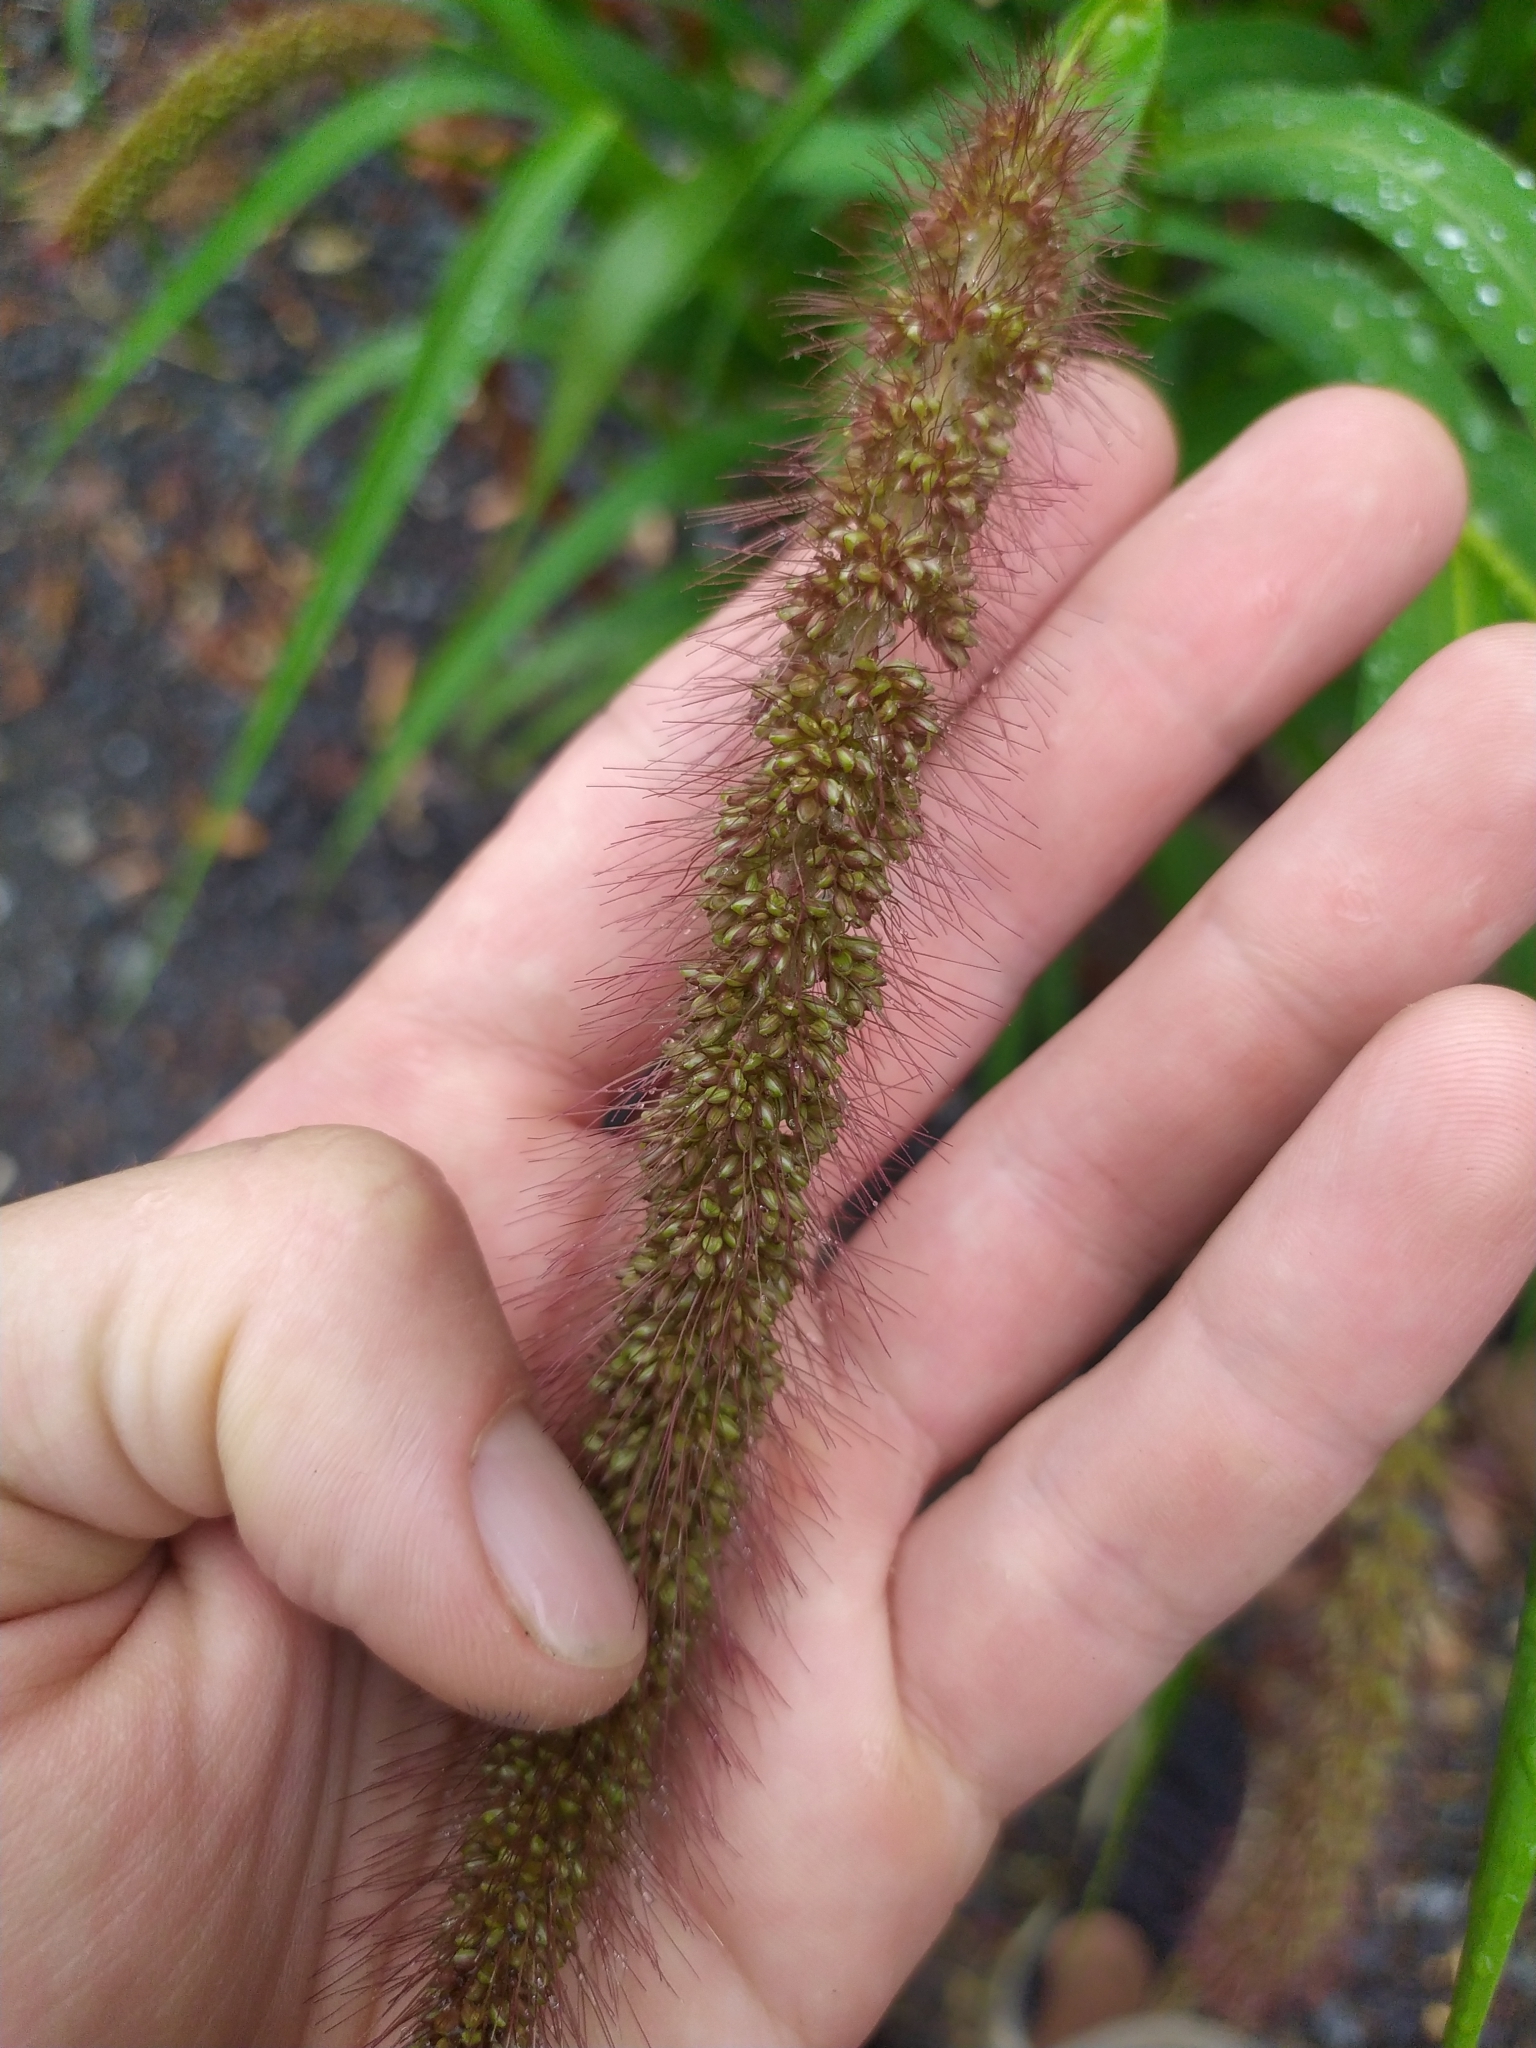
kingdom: Plantae
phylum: Tracheophyta
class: Liliopsida
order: Poales
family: Poaceae
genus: Setaria
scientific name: Setaria italica
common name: Foxtail bristle-grass
